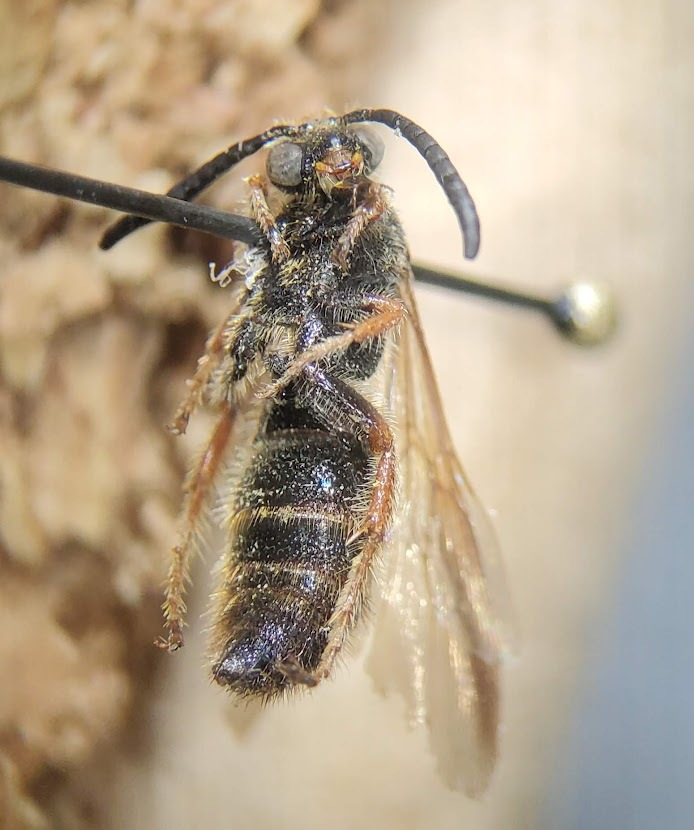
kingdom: Animalia
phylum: Arthropoda
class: Insecta
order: Hymenoptera
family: Scoliidae
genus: Scolia
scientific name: Scolia nobilitata
